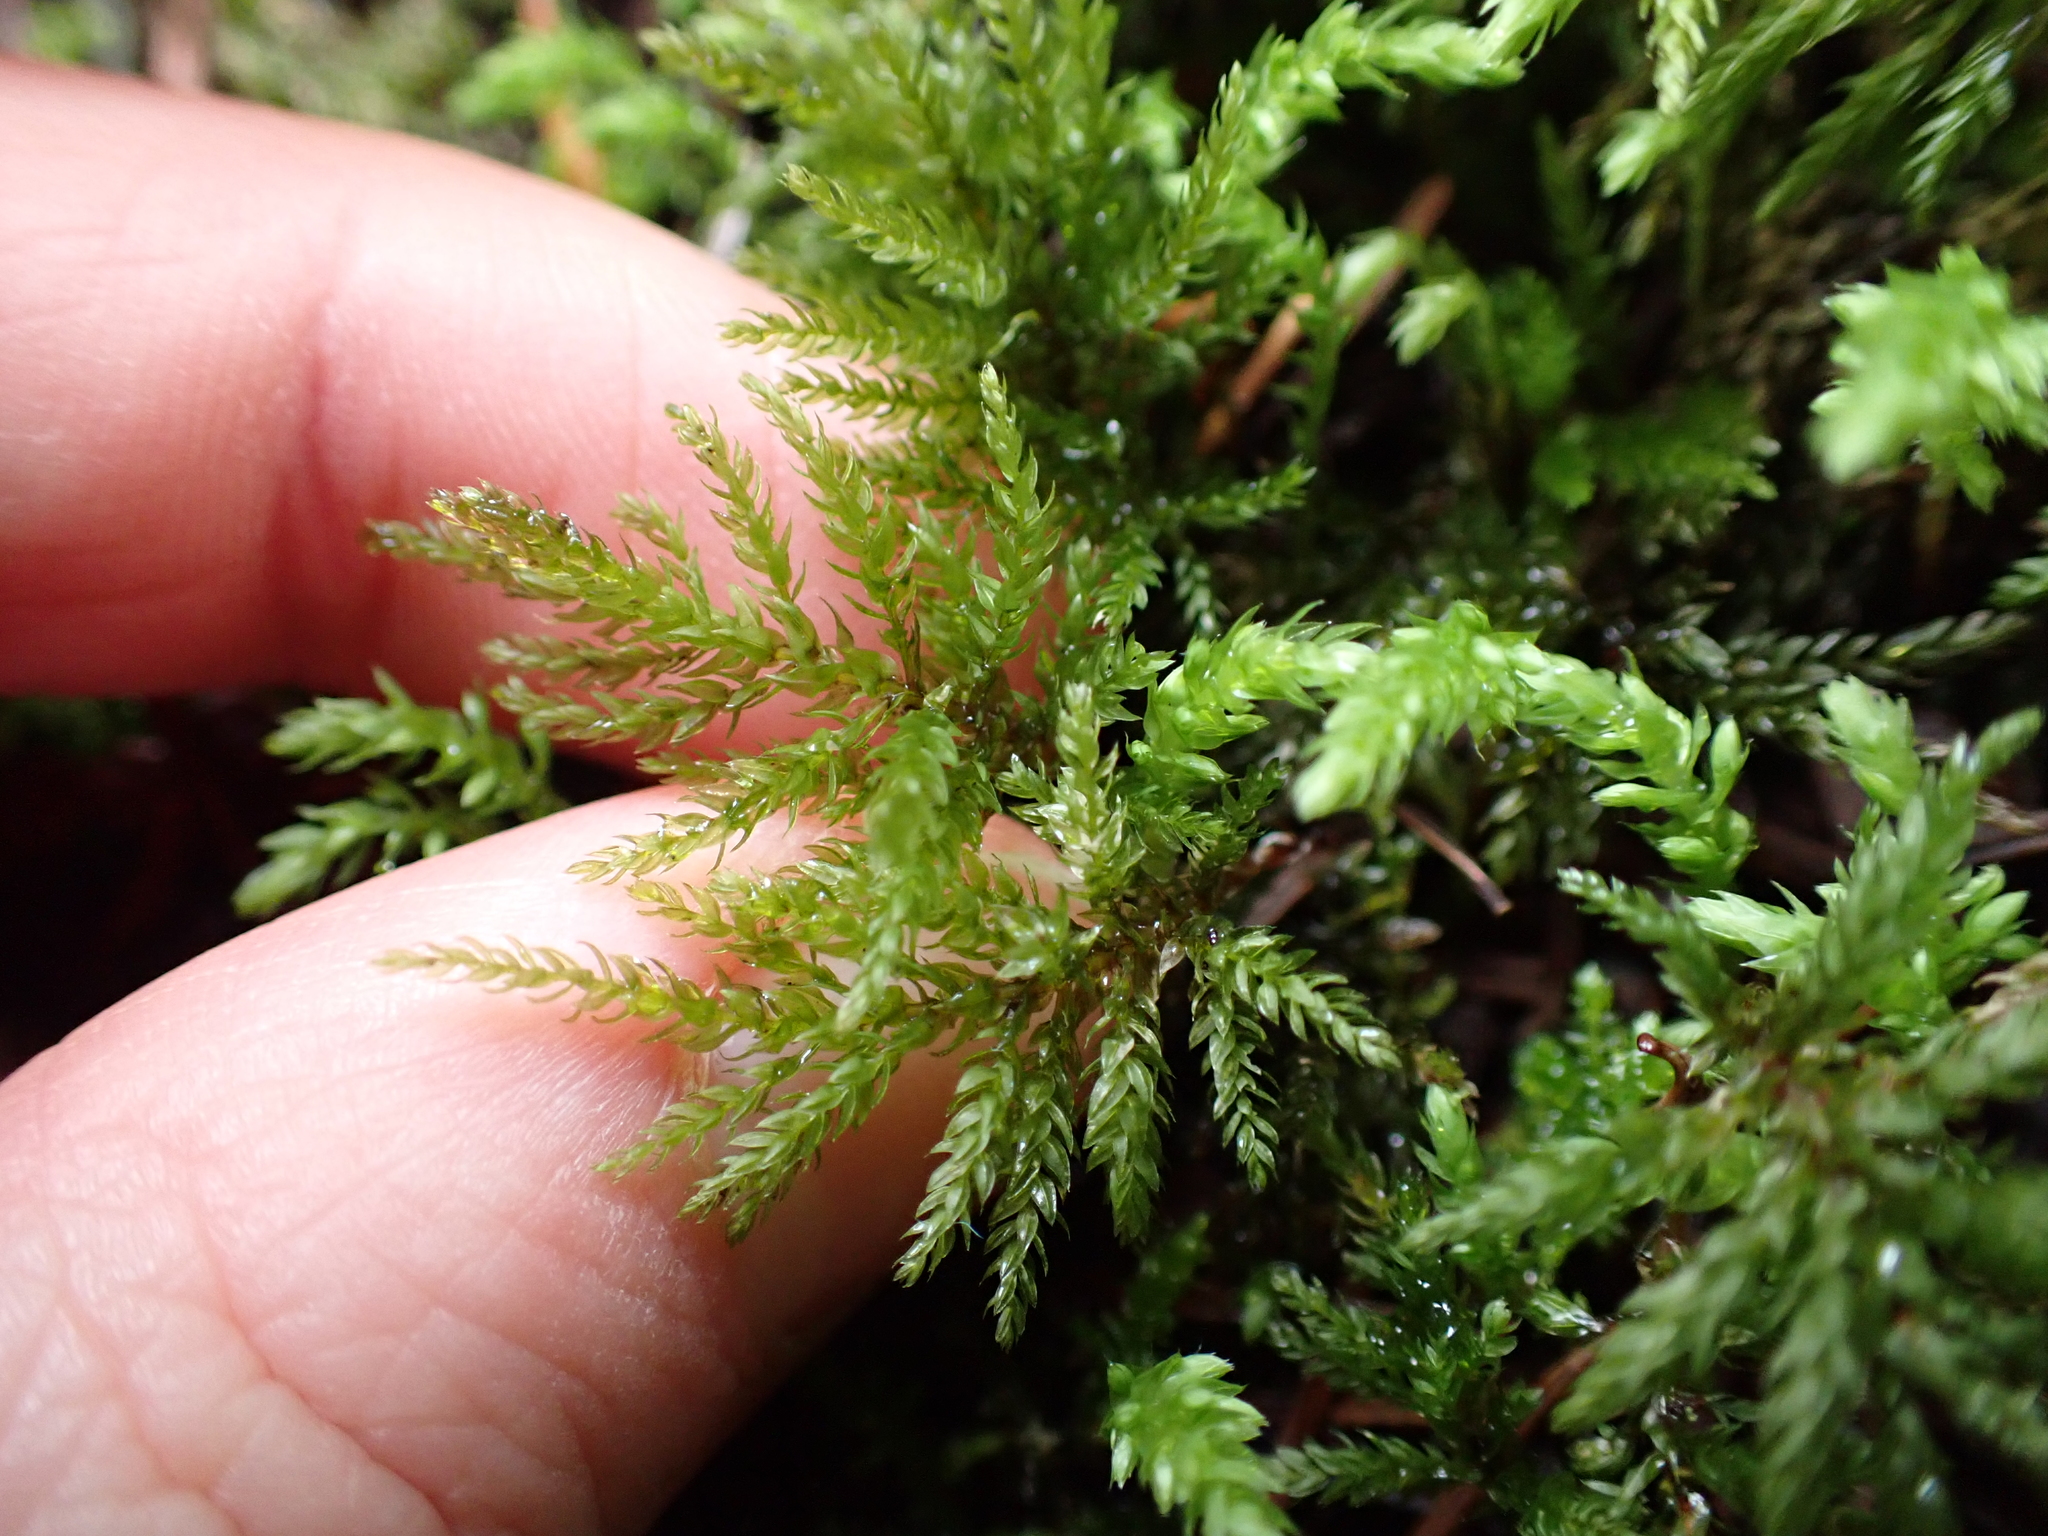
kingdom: Plantae
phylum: Bryophyta
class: Bryopsida
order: Bryales
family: Mniaceae
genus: Leucolepis
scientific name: Leucolepis acanthoneura
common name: Leucolepis umbrella moss
